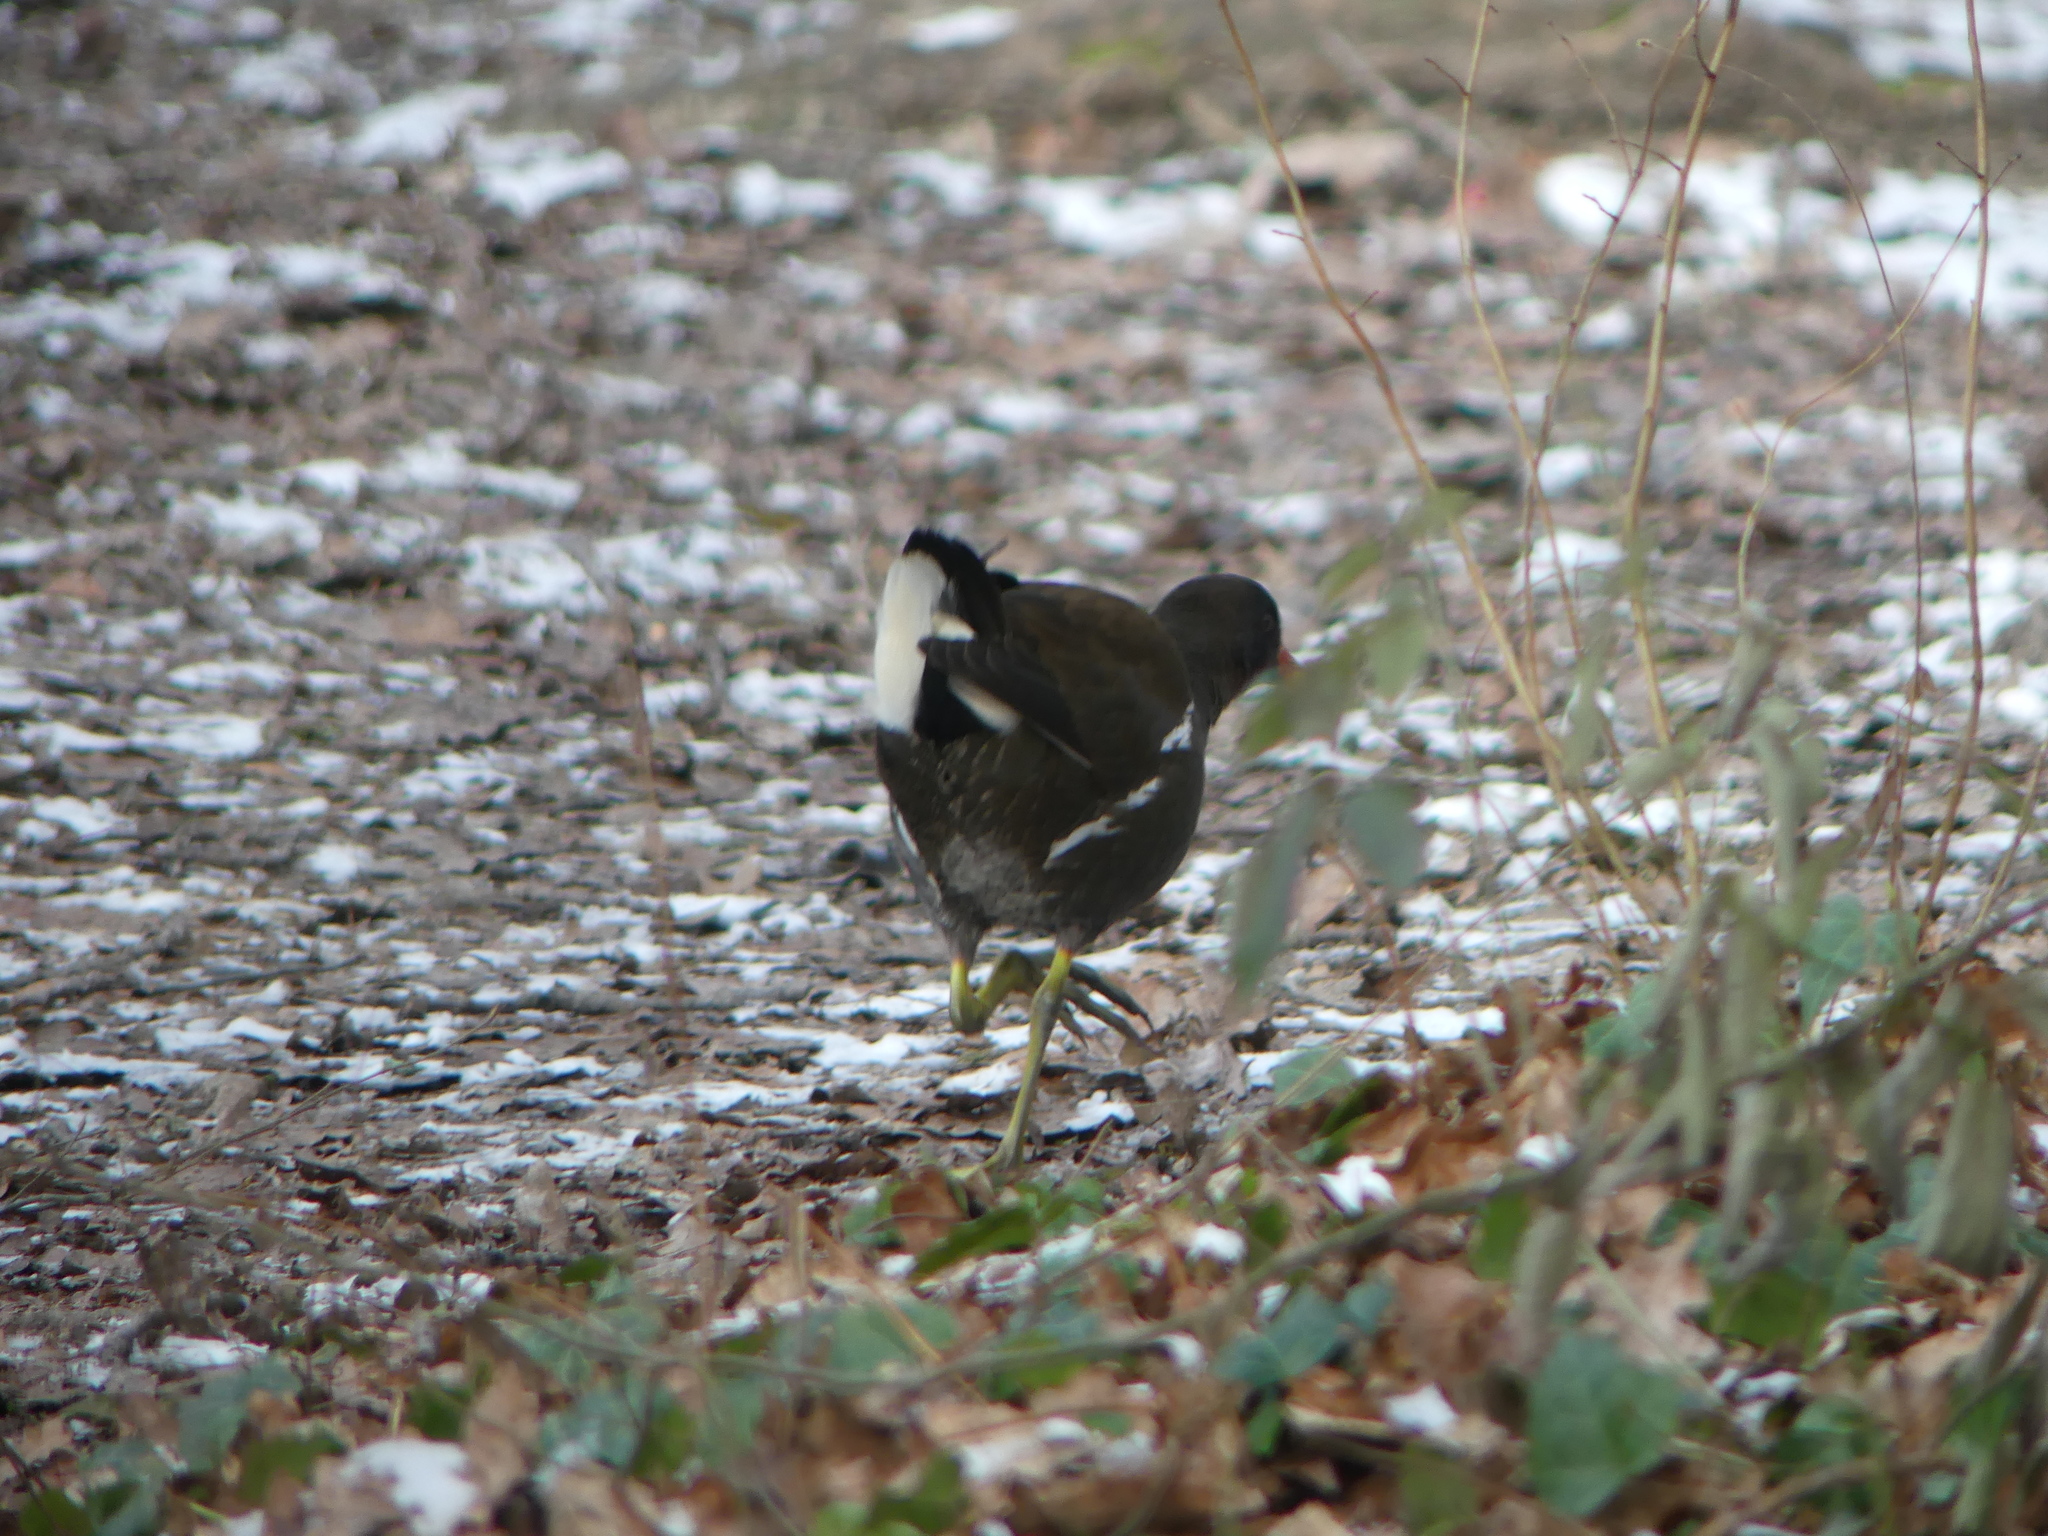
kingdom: Animalia
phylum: Chordata
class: Aves
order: Gruiformes
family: Rallidae
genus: Gallinula
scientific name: Gallinula chloropus
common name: Common moorhen
